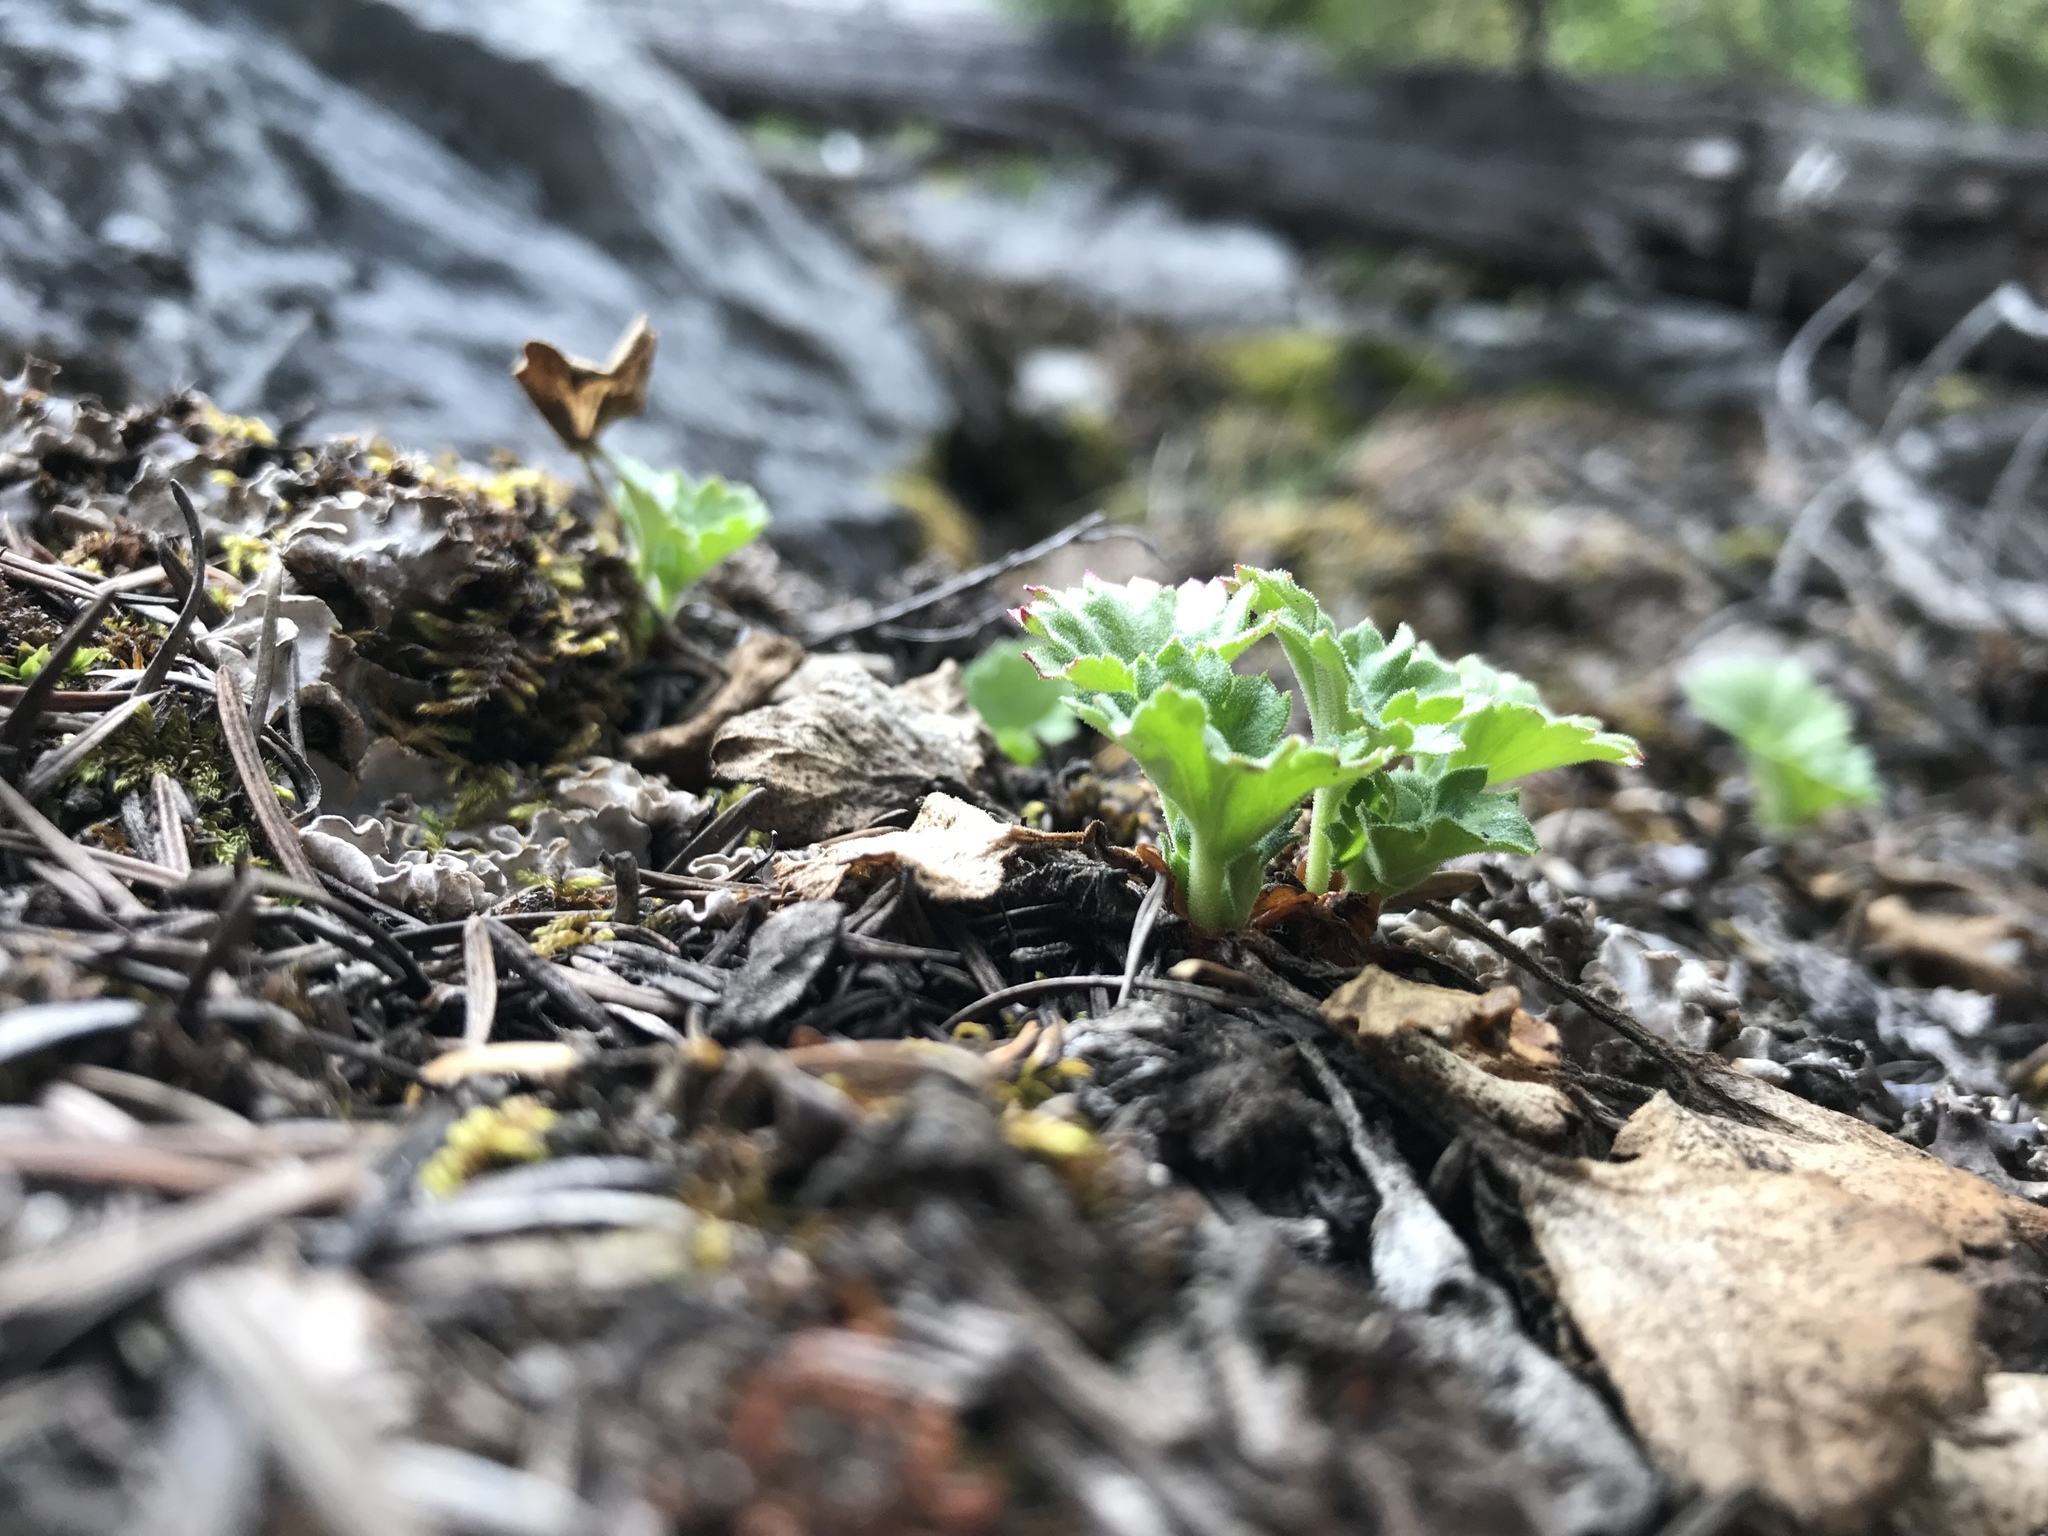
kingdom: Plantae
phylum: Tracheophyta
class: Magnoliopsida
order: Saxifragales
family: Saxifragaceae
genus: Telesonix
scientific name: Telesonix heucheriformis
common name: Alumroot brookfoam
